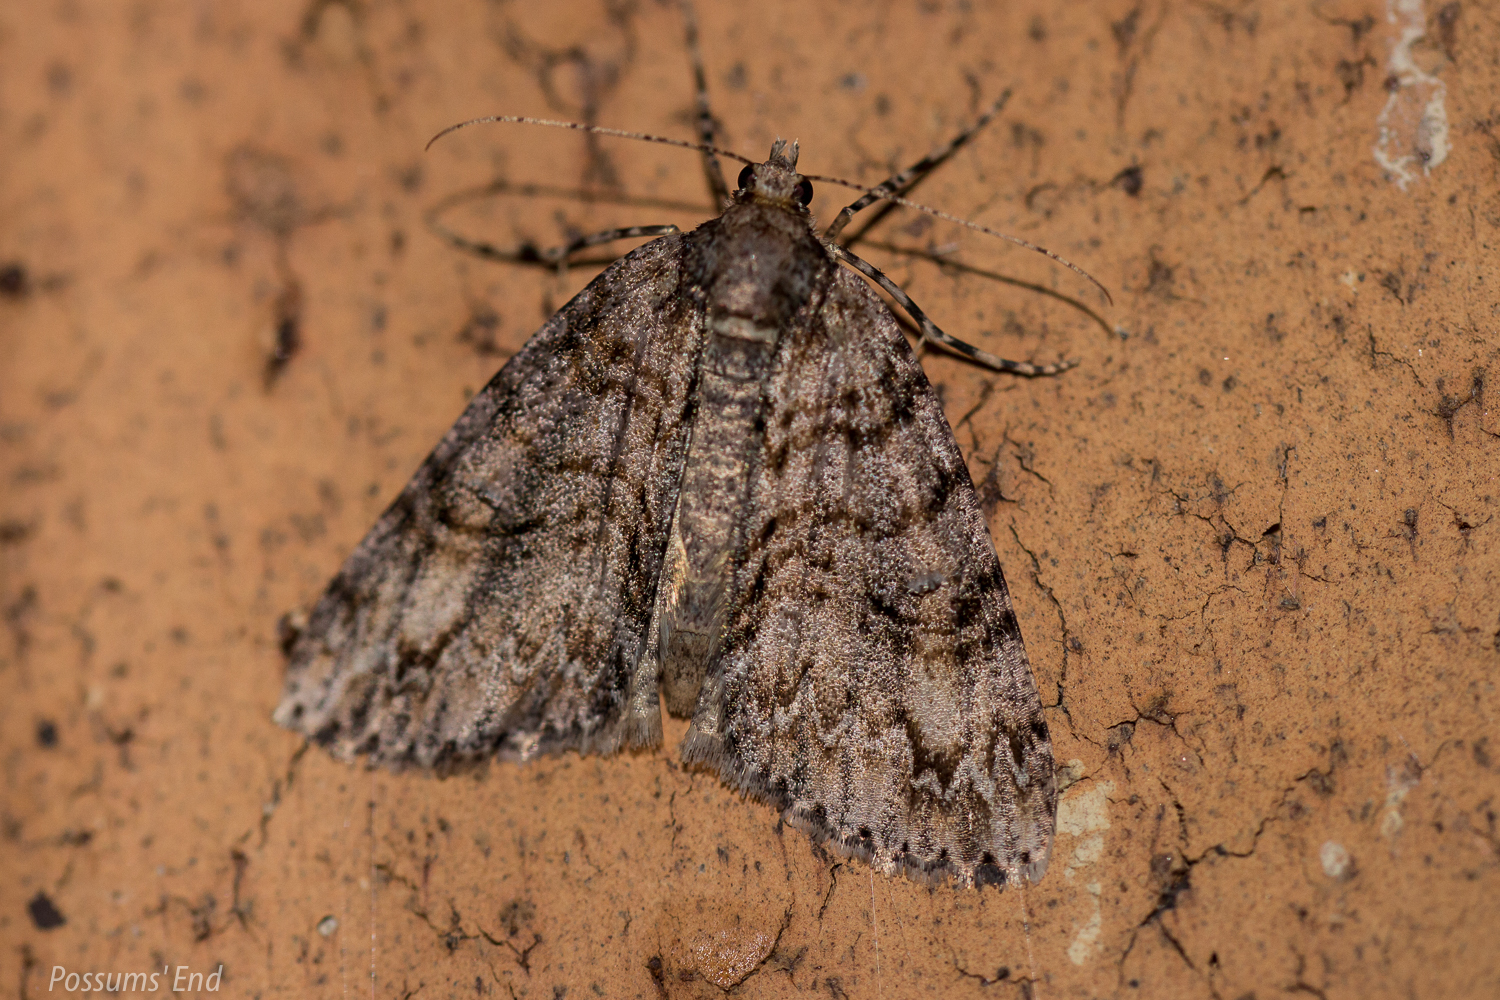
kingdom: Animalia
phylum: Arthropoda
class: Insecta
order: Lepidoptera
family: Geometridae
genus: Pseudocoremia
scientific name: Pseudocoremia suavis
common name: Common forest looper
